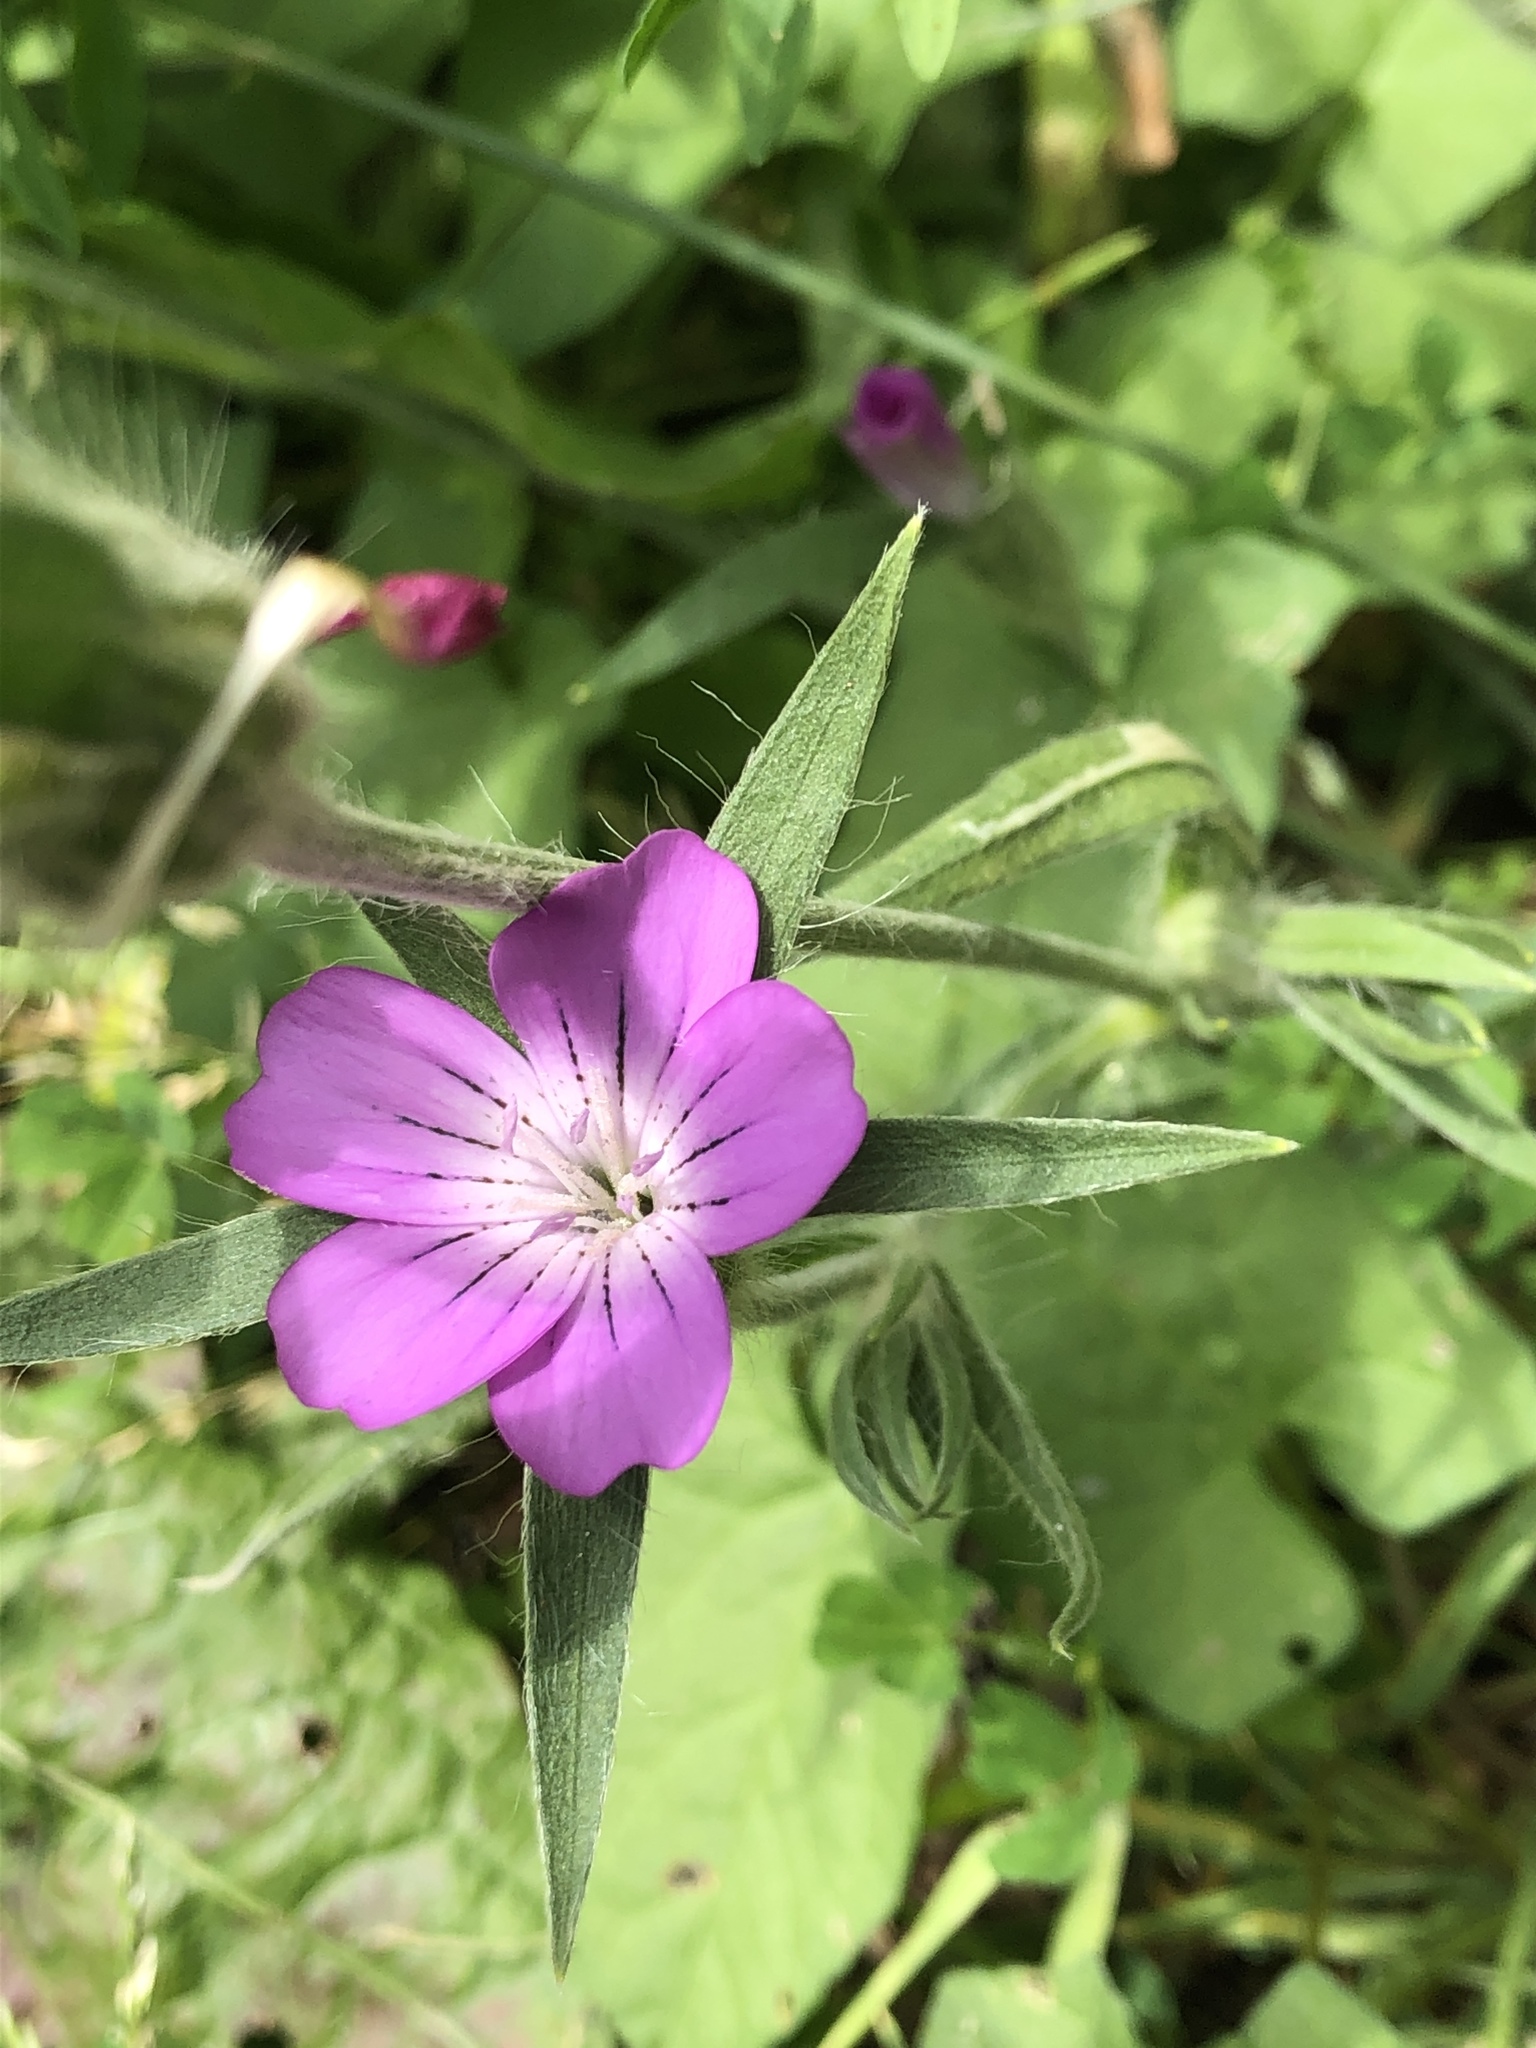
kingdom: Plantae
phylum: Tracheophyta
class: Magnoliopsida
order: Caryophyllales
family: Caryophyllaceae
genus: Agrostemma
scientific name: Agrostemma githago
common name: Common corncockle
